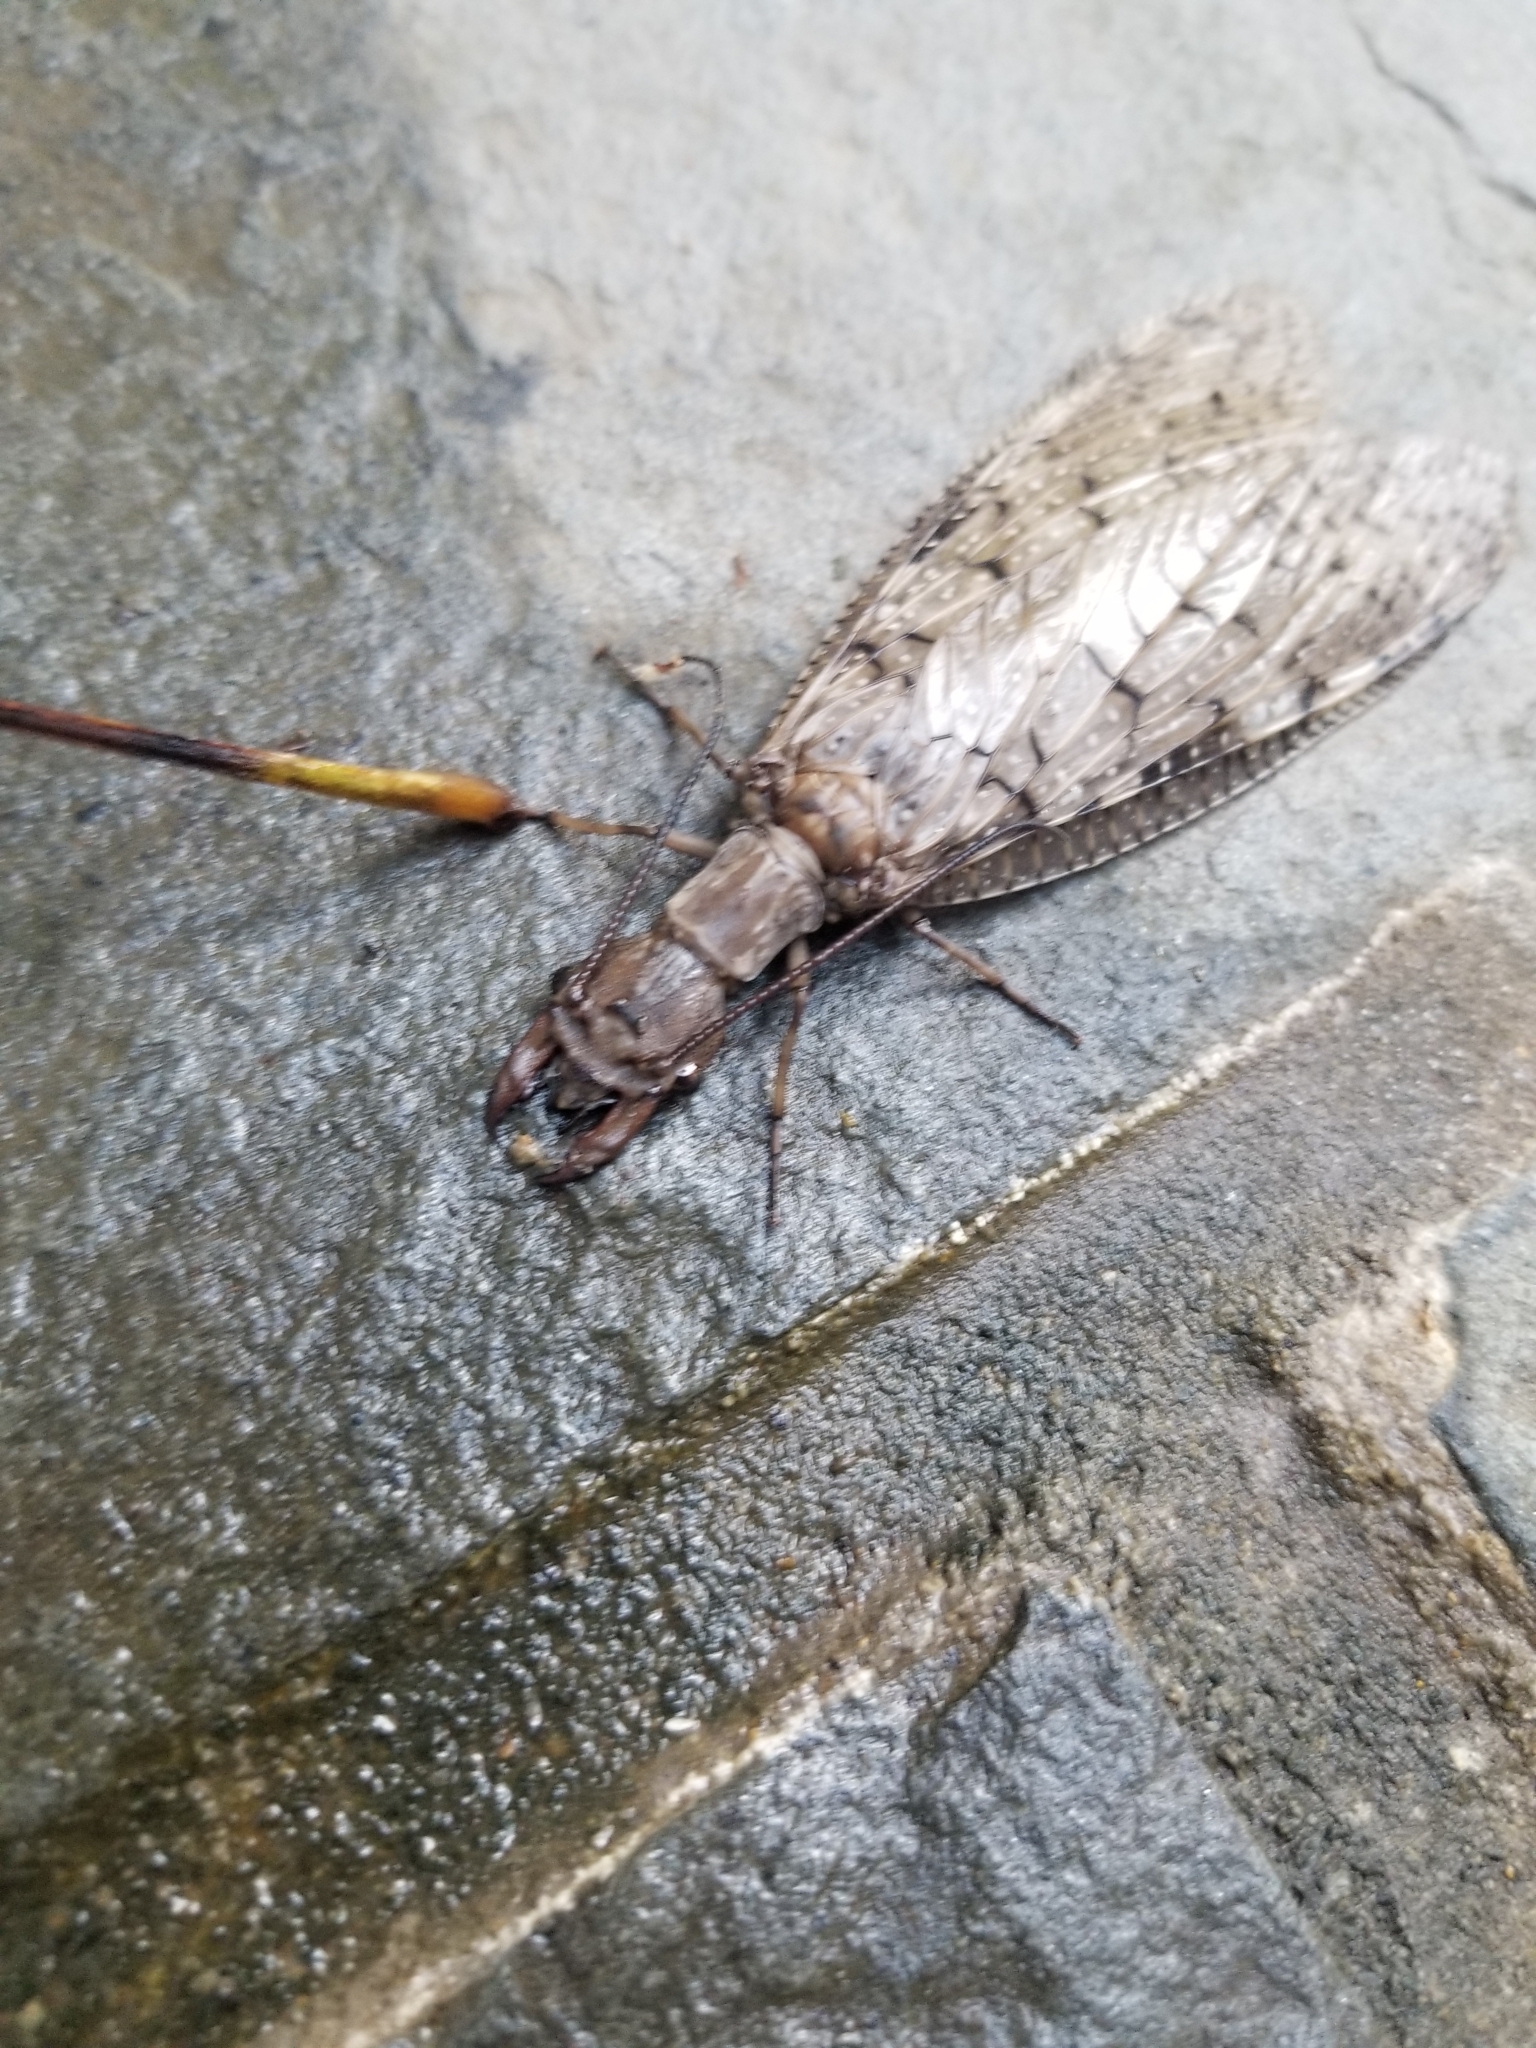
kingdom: Animalia
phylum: Arthropoda
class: Insecta
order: Megaloptera
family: Corydalidae
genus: Corydalus
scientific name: Corydalus cornutus
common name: Dobsonfly
